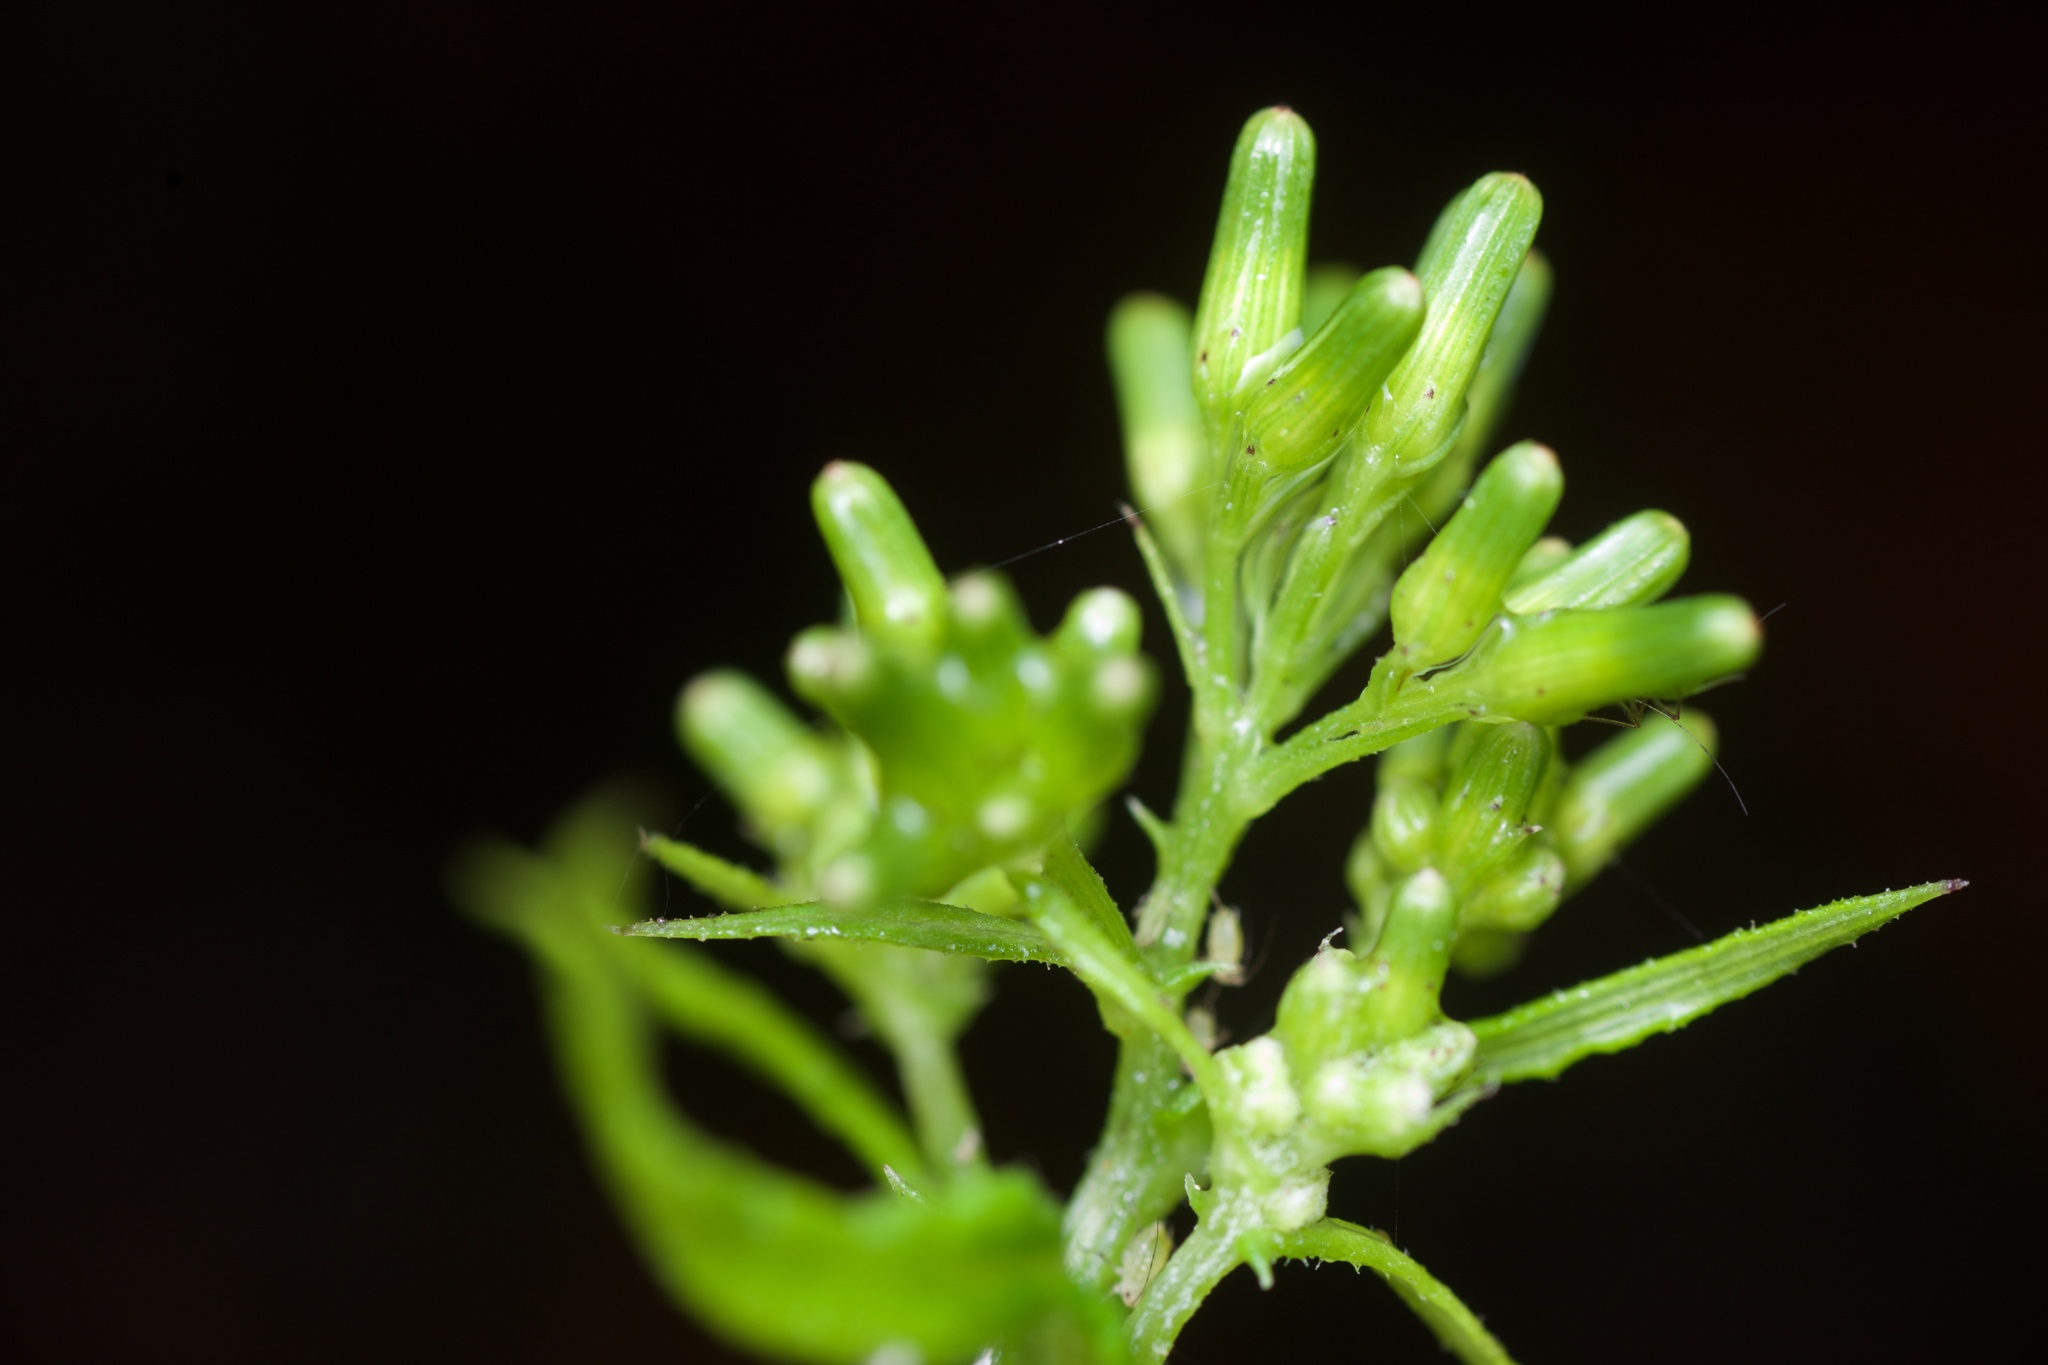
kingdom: Plantae
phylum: Tracheophyta
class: Magnoliopsida
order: Asterales
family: Asteraceae
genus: Senecio
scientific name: Senecio hispidulus
